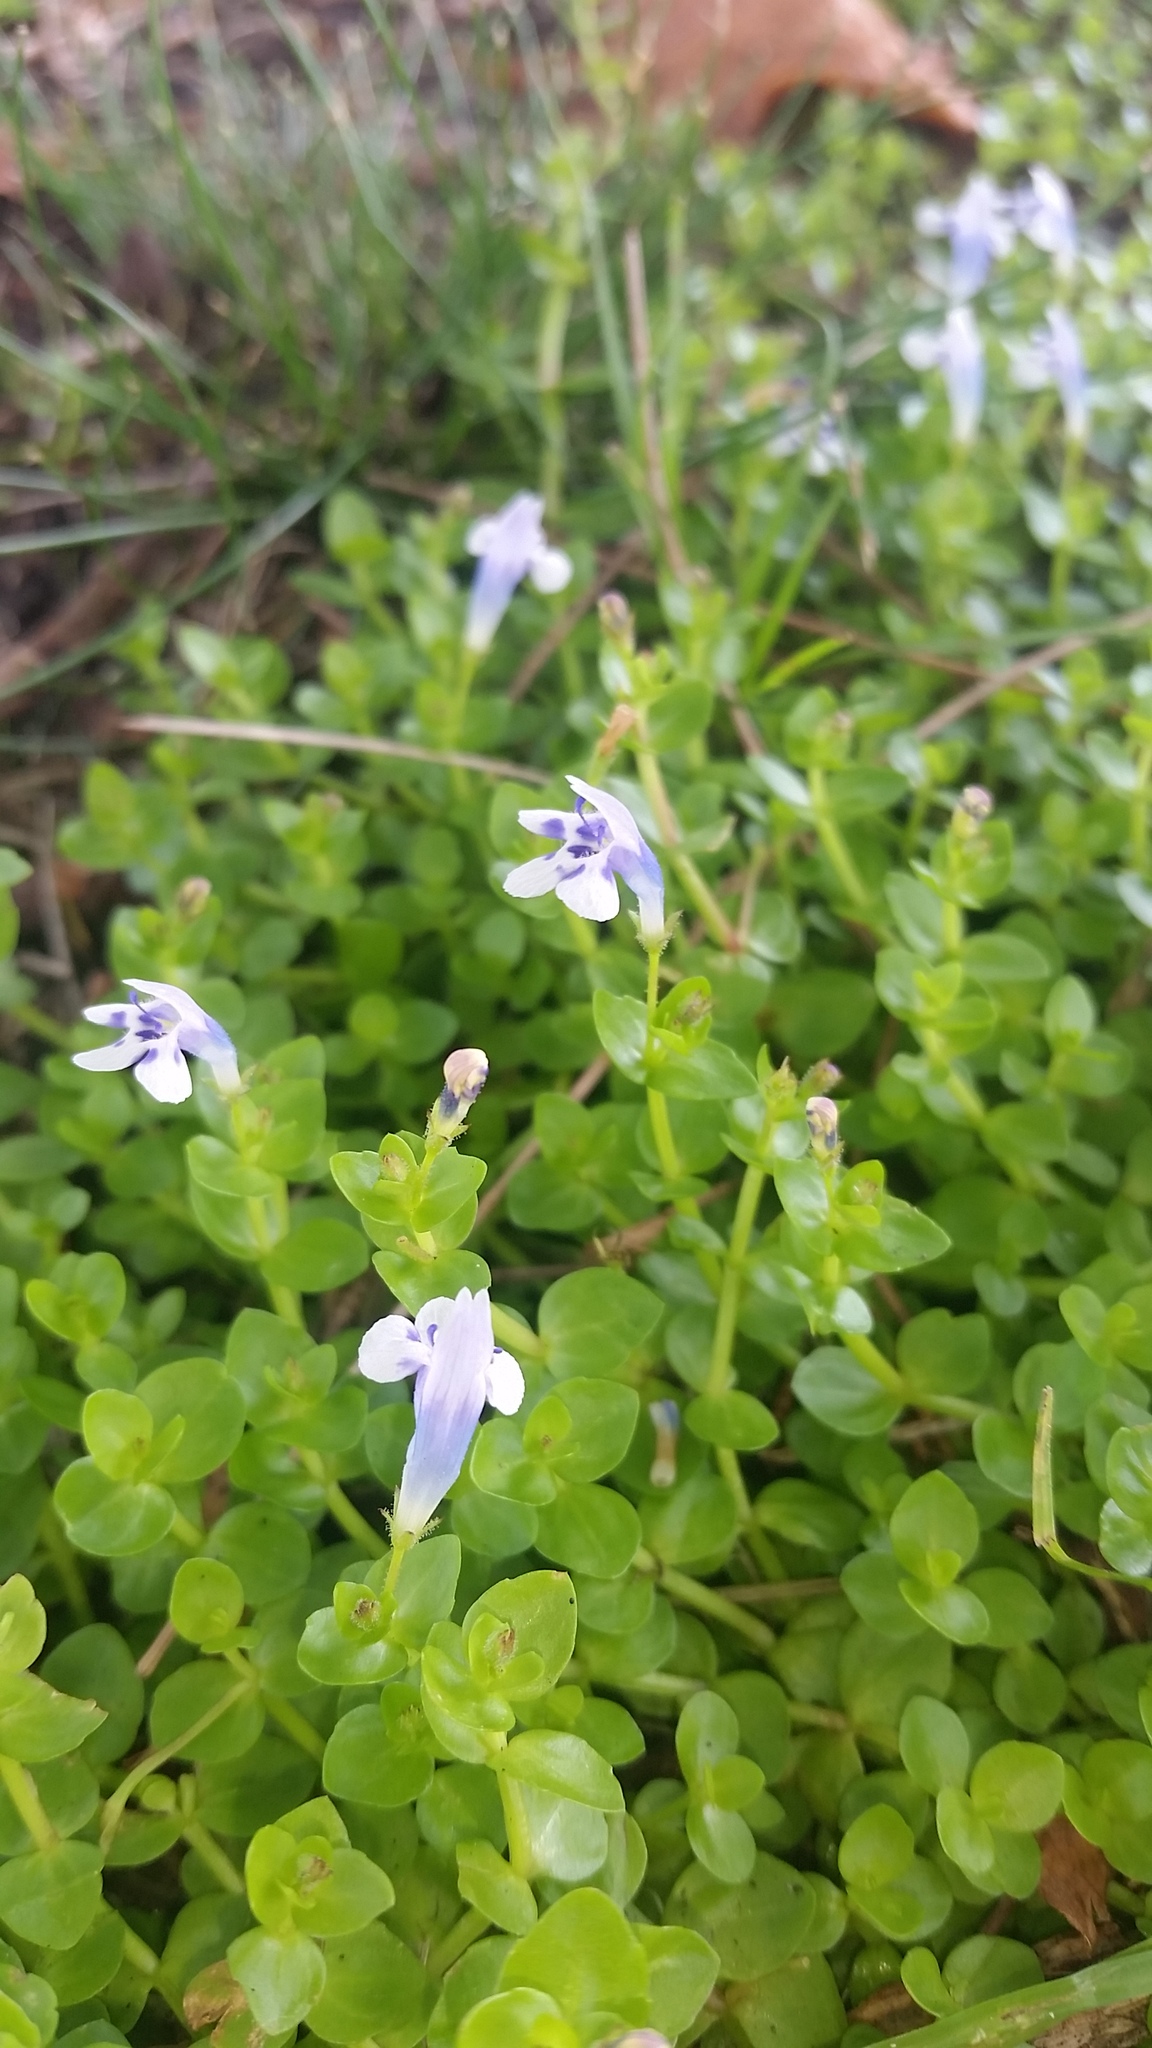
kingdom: Plantae
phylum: Tracheophyta
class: Magnoliopsida
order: Lamiales
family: Linderniaceae
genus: Lindernia
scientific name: Lindernia rotundifolia
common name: Baby’s tears
